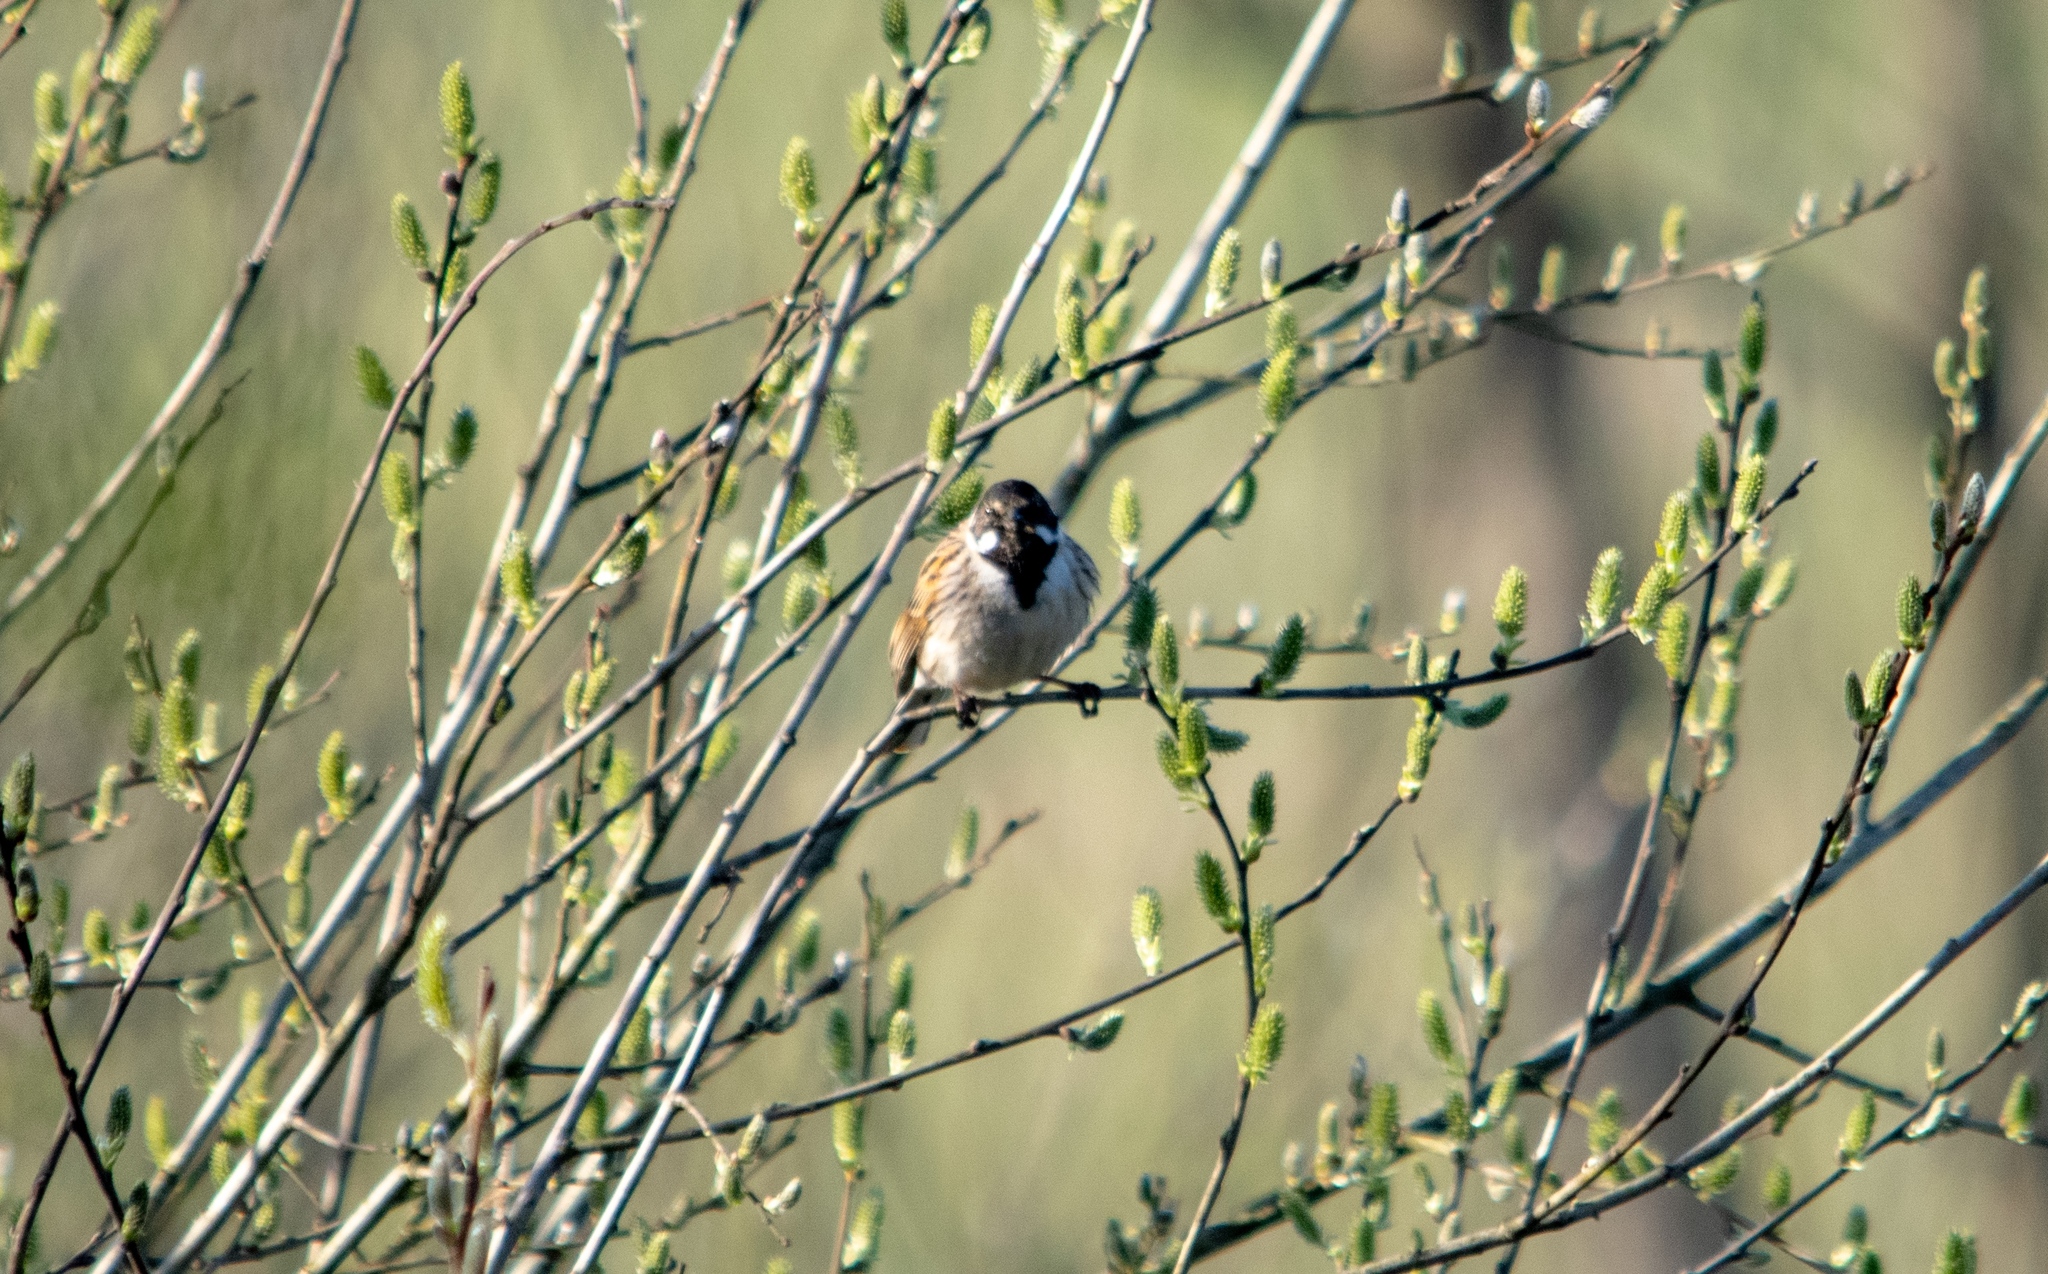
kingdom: Animalia
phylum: Chordata
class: Aves
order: Passeriformes
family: Emberizidae
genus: Emberiza
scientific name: Emberiza schoeniclus
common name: Reed bunting
